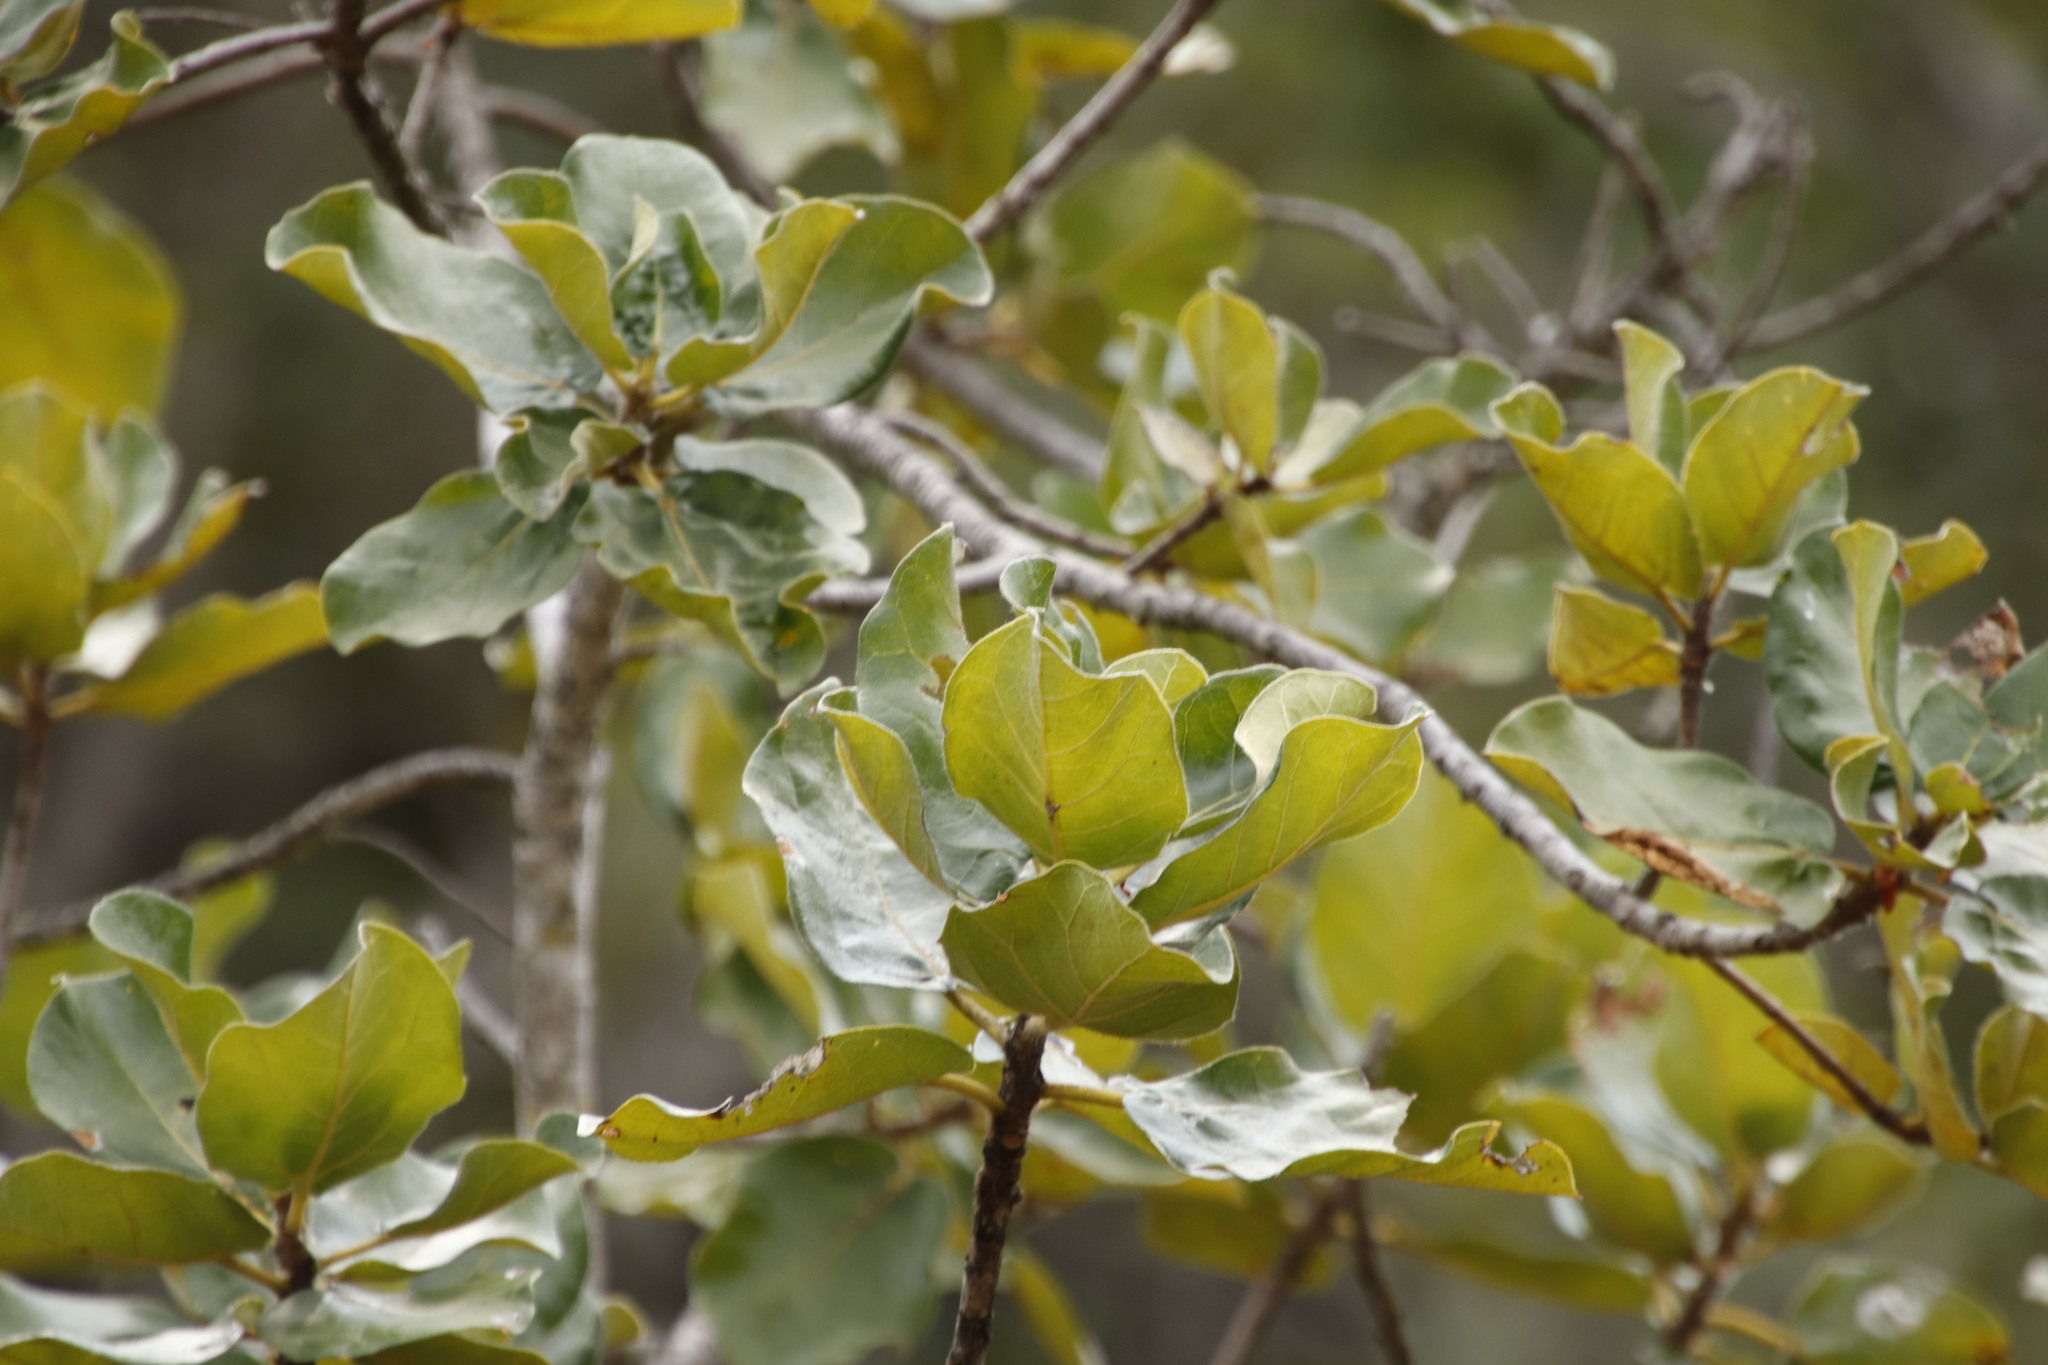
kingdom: Plantae
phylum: Tracheophyta
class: Magnoliopsida
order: Rosales
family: Moraceae
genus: Ficus
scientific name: Ficus abutilifolia
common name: Large-leaved rock fig
